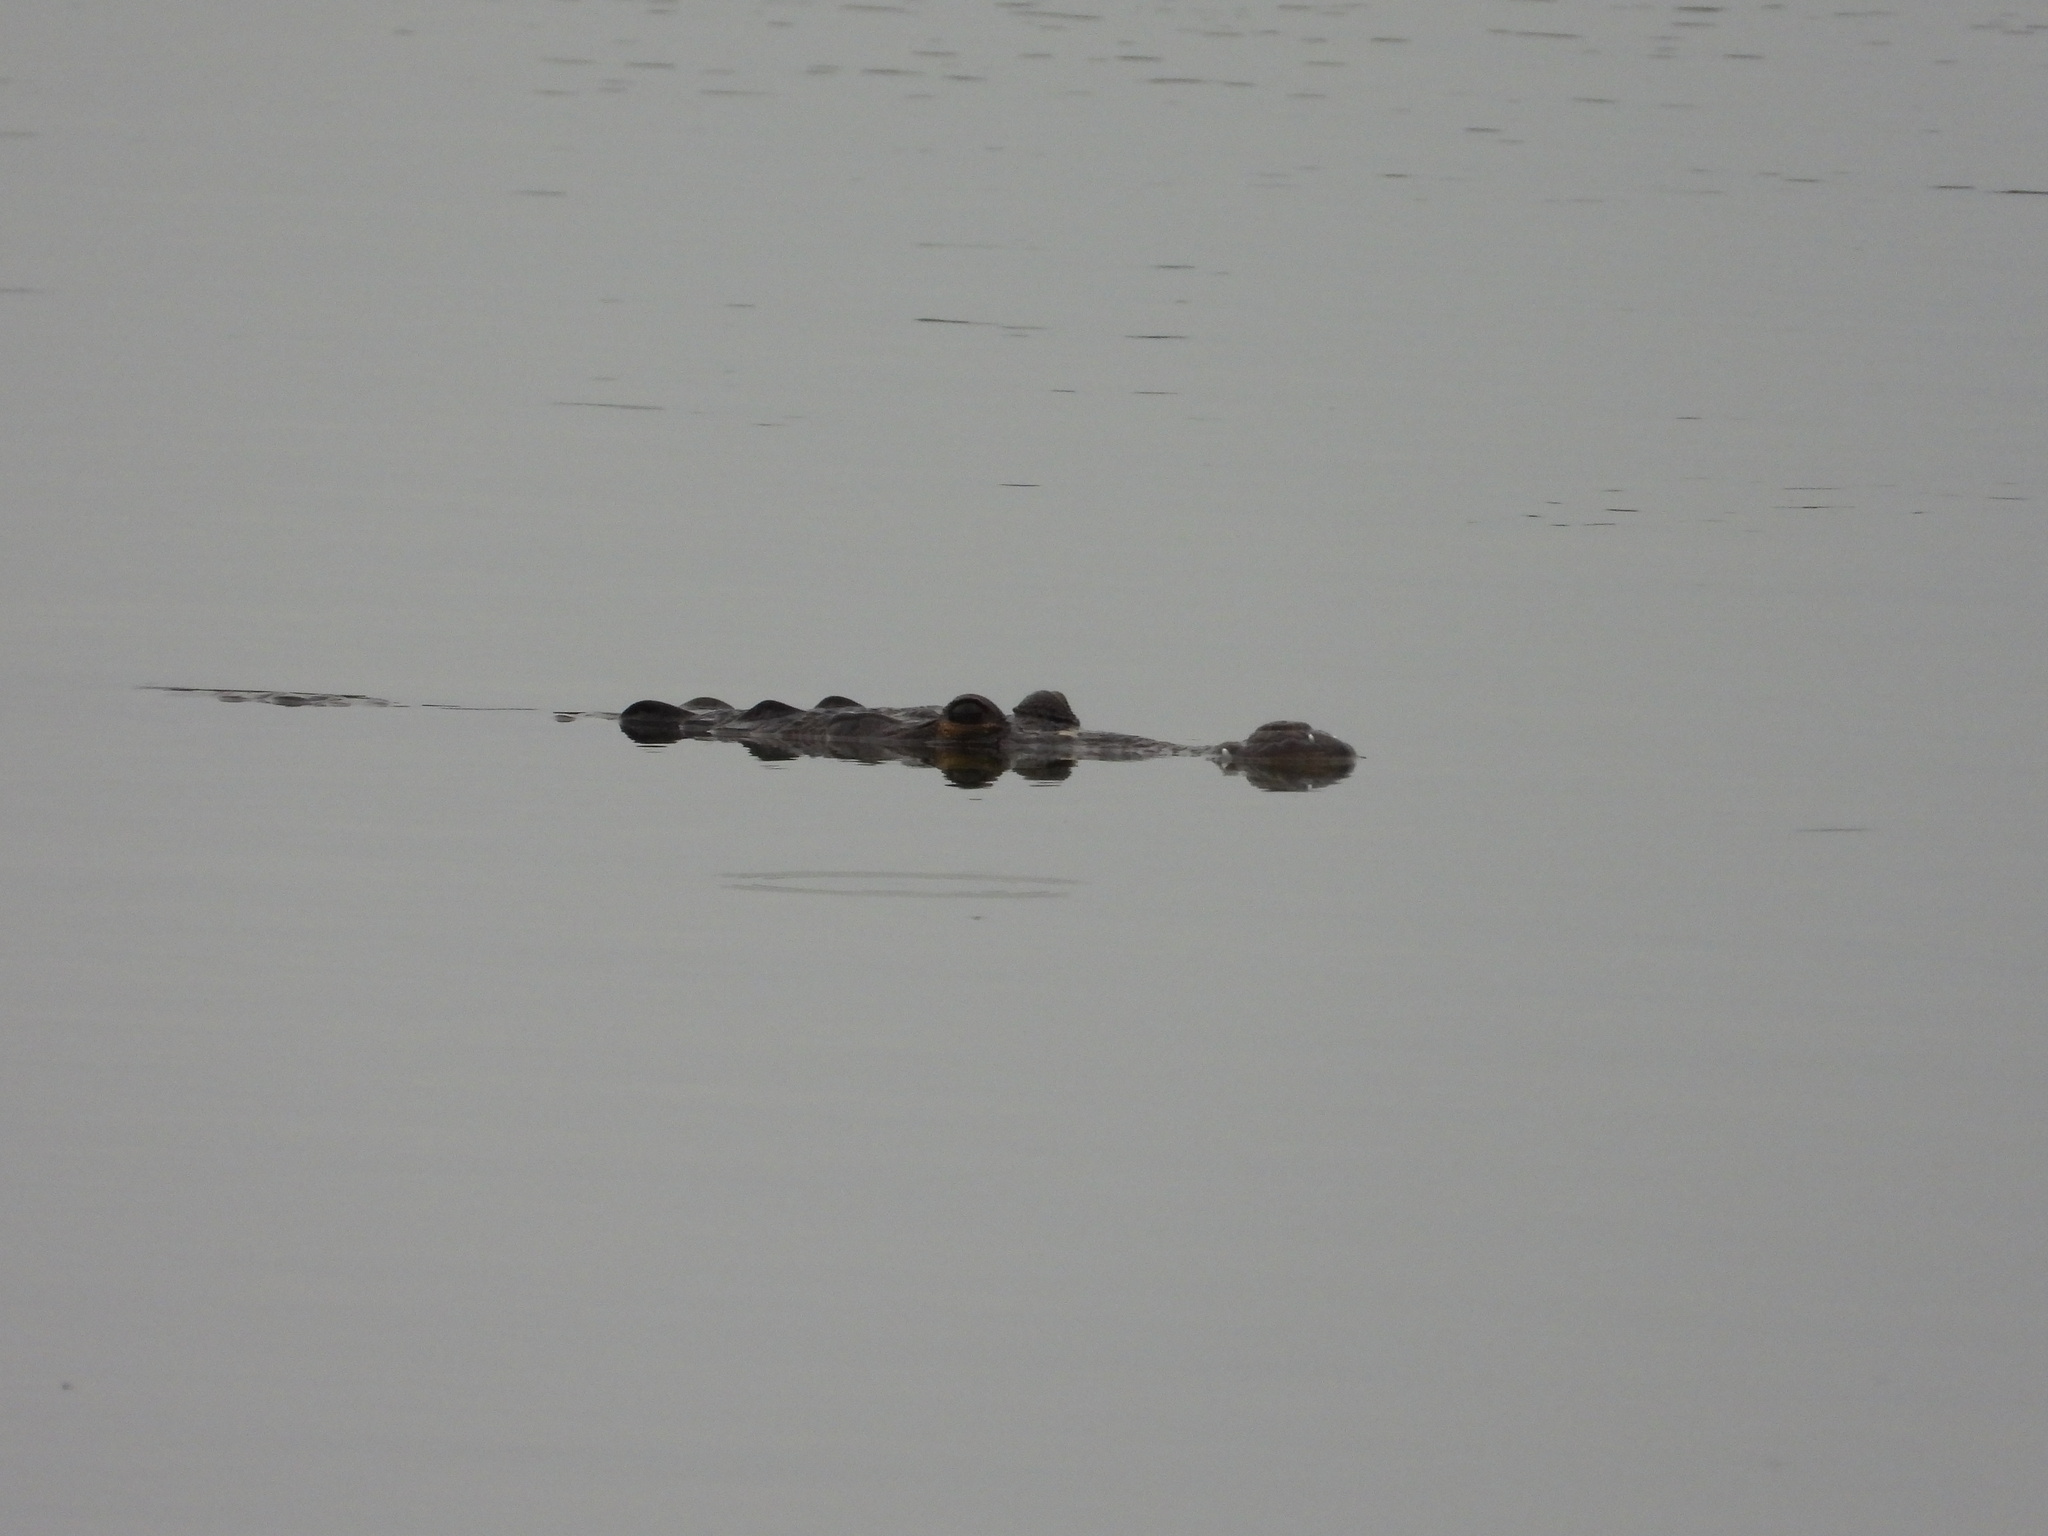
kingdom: Animalia
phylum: Chordata
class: Crocodylia
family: Crocodylidae
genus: Crocodylus
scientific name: Crocodylus moreletii
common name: Morelet's crocodile
